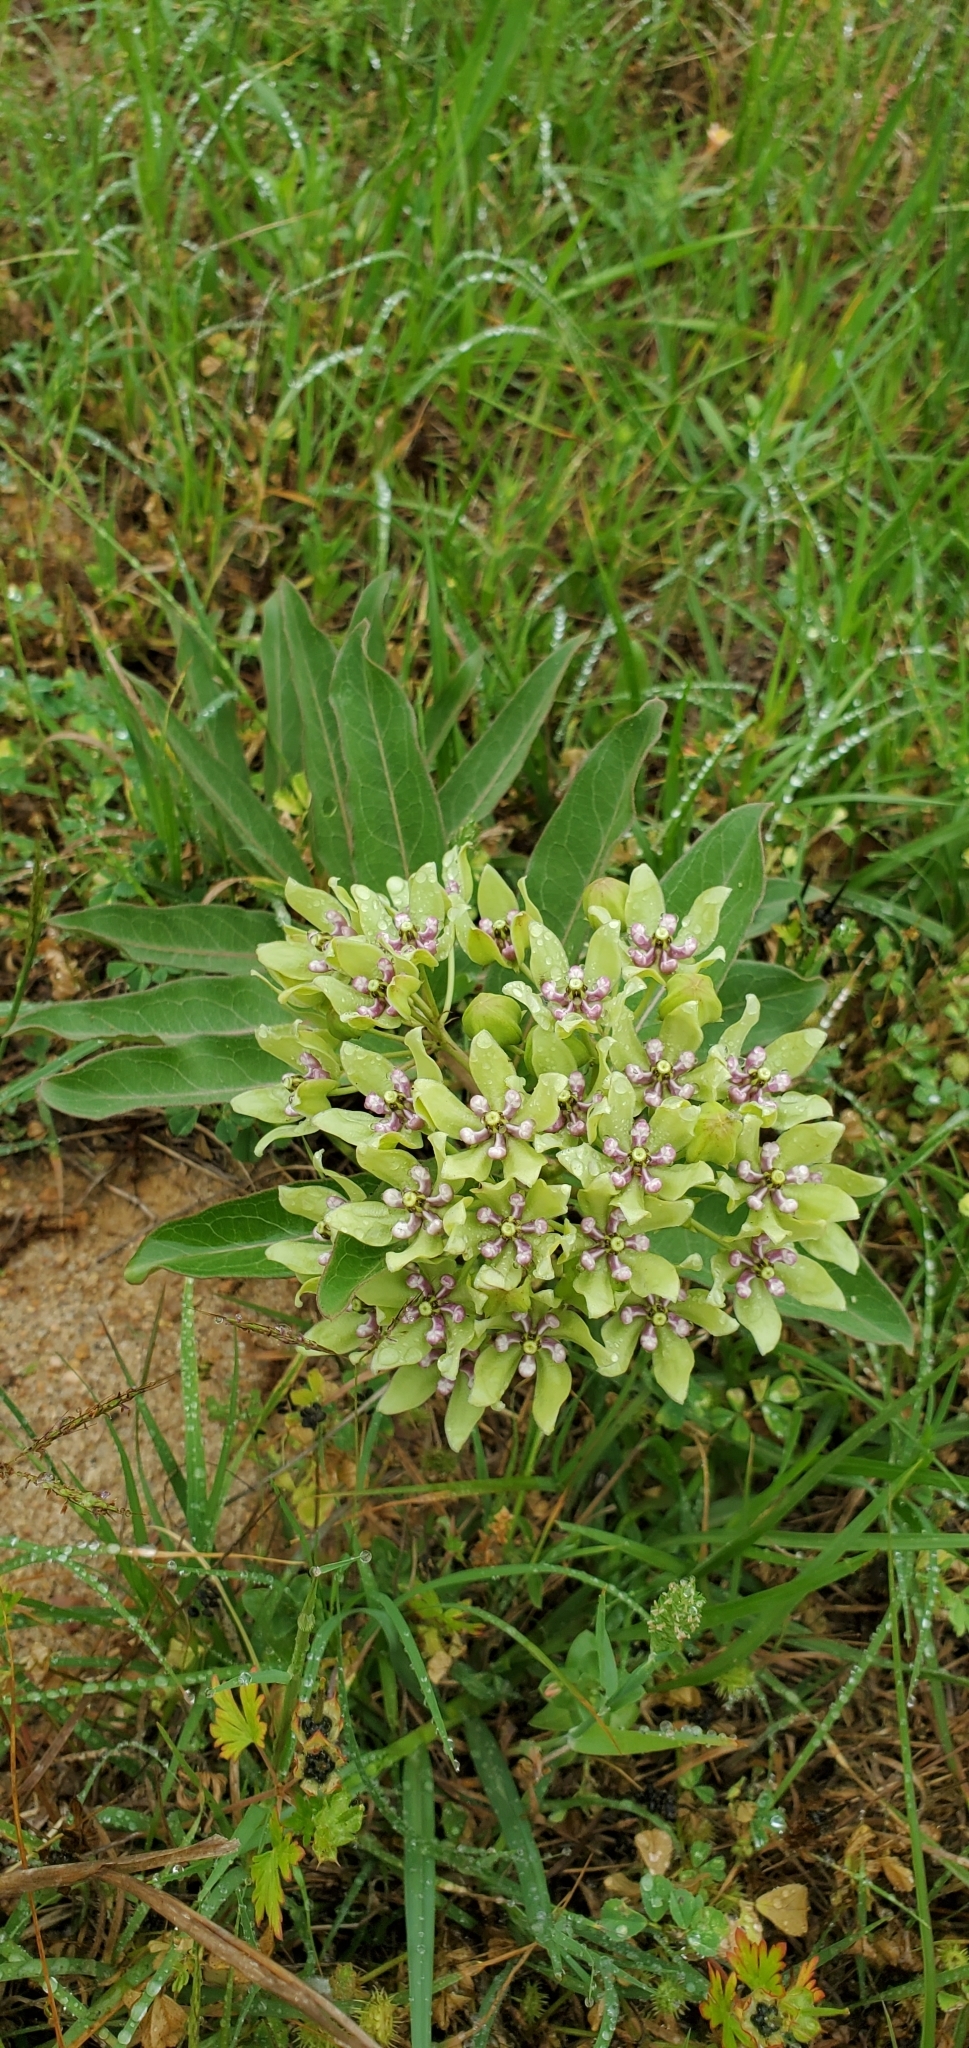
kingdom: Plantae
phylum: Tracheophyta
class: Magnoliopsida
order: Gentianales
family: Apocynaceae
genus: Asclepias
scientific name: Asclepias viridis
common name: Antelope-horns
